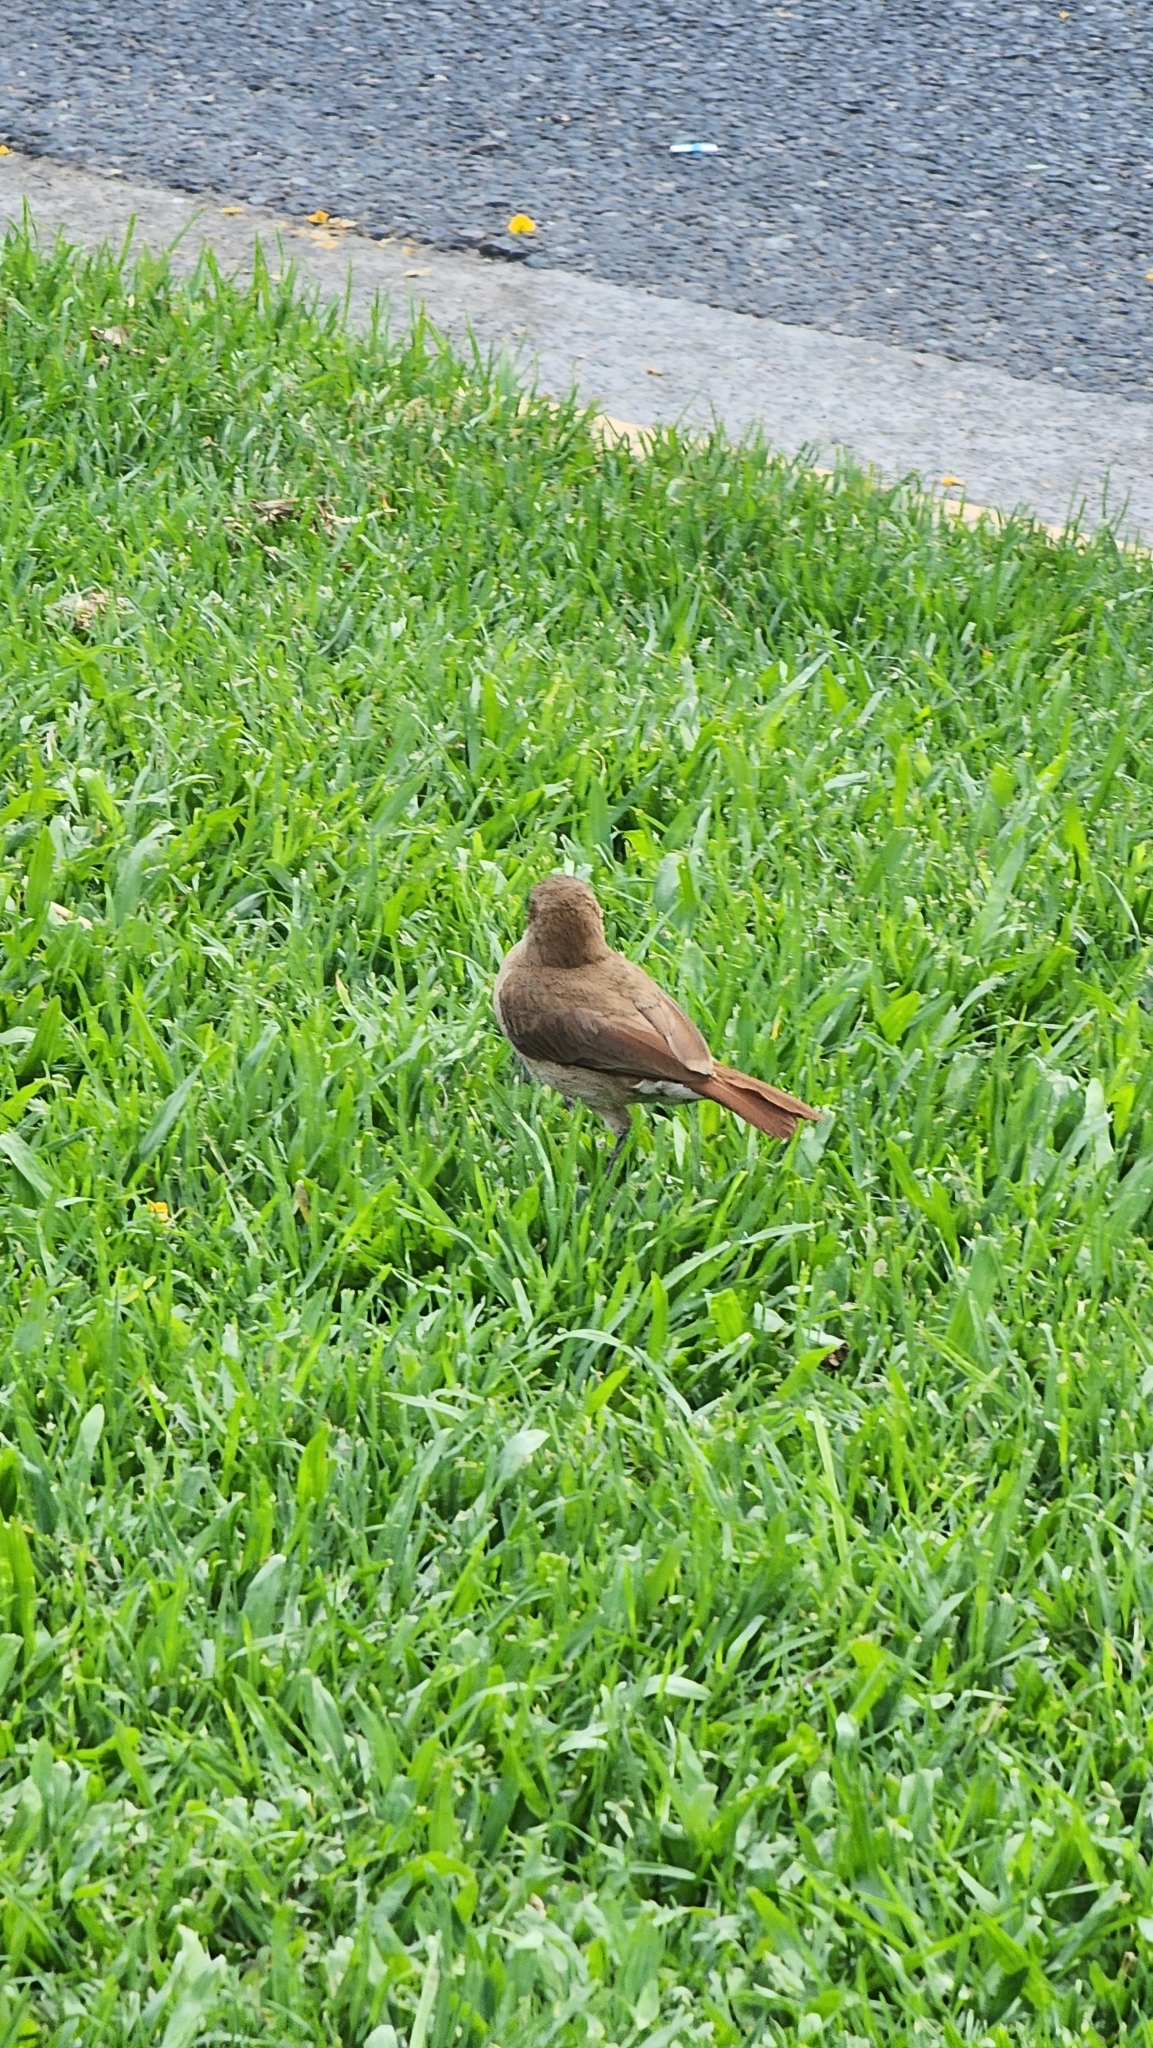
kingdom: Animalia
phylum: Chordata
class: Aves
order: Passeriformes
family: Furnariidae
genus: Furnarius
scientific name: Furnarius rufus
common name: Rufous hornero
